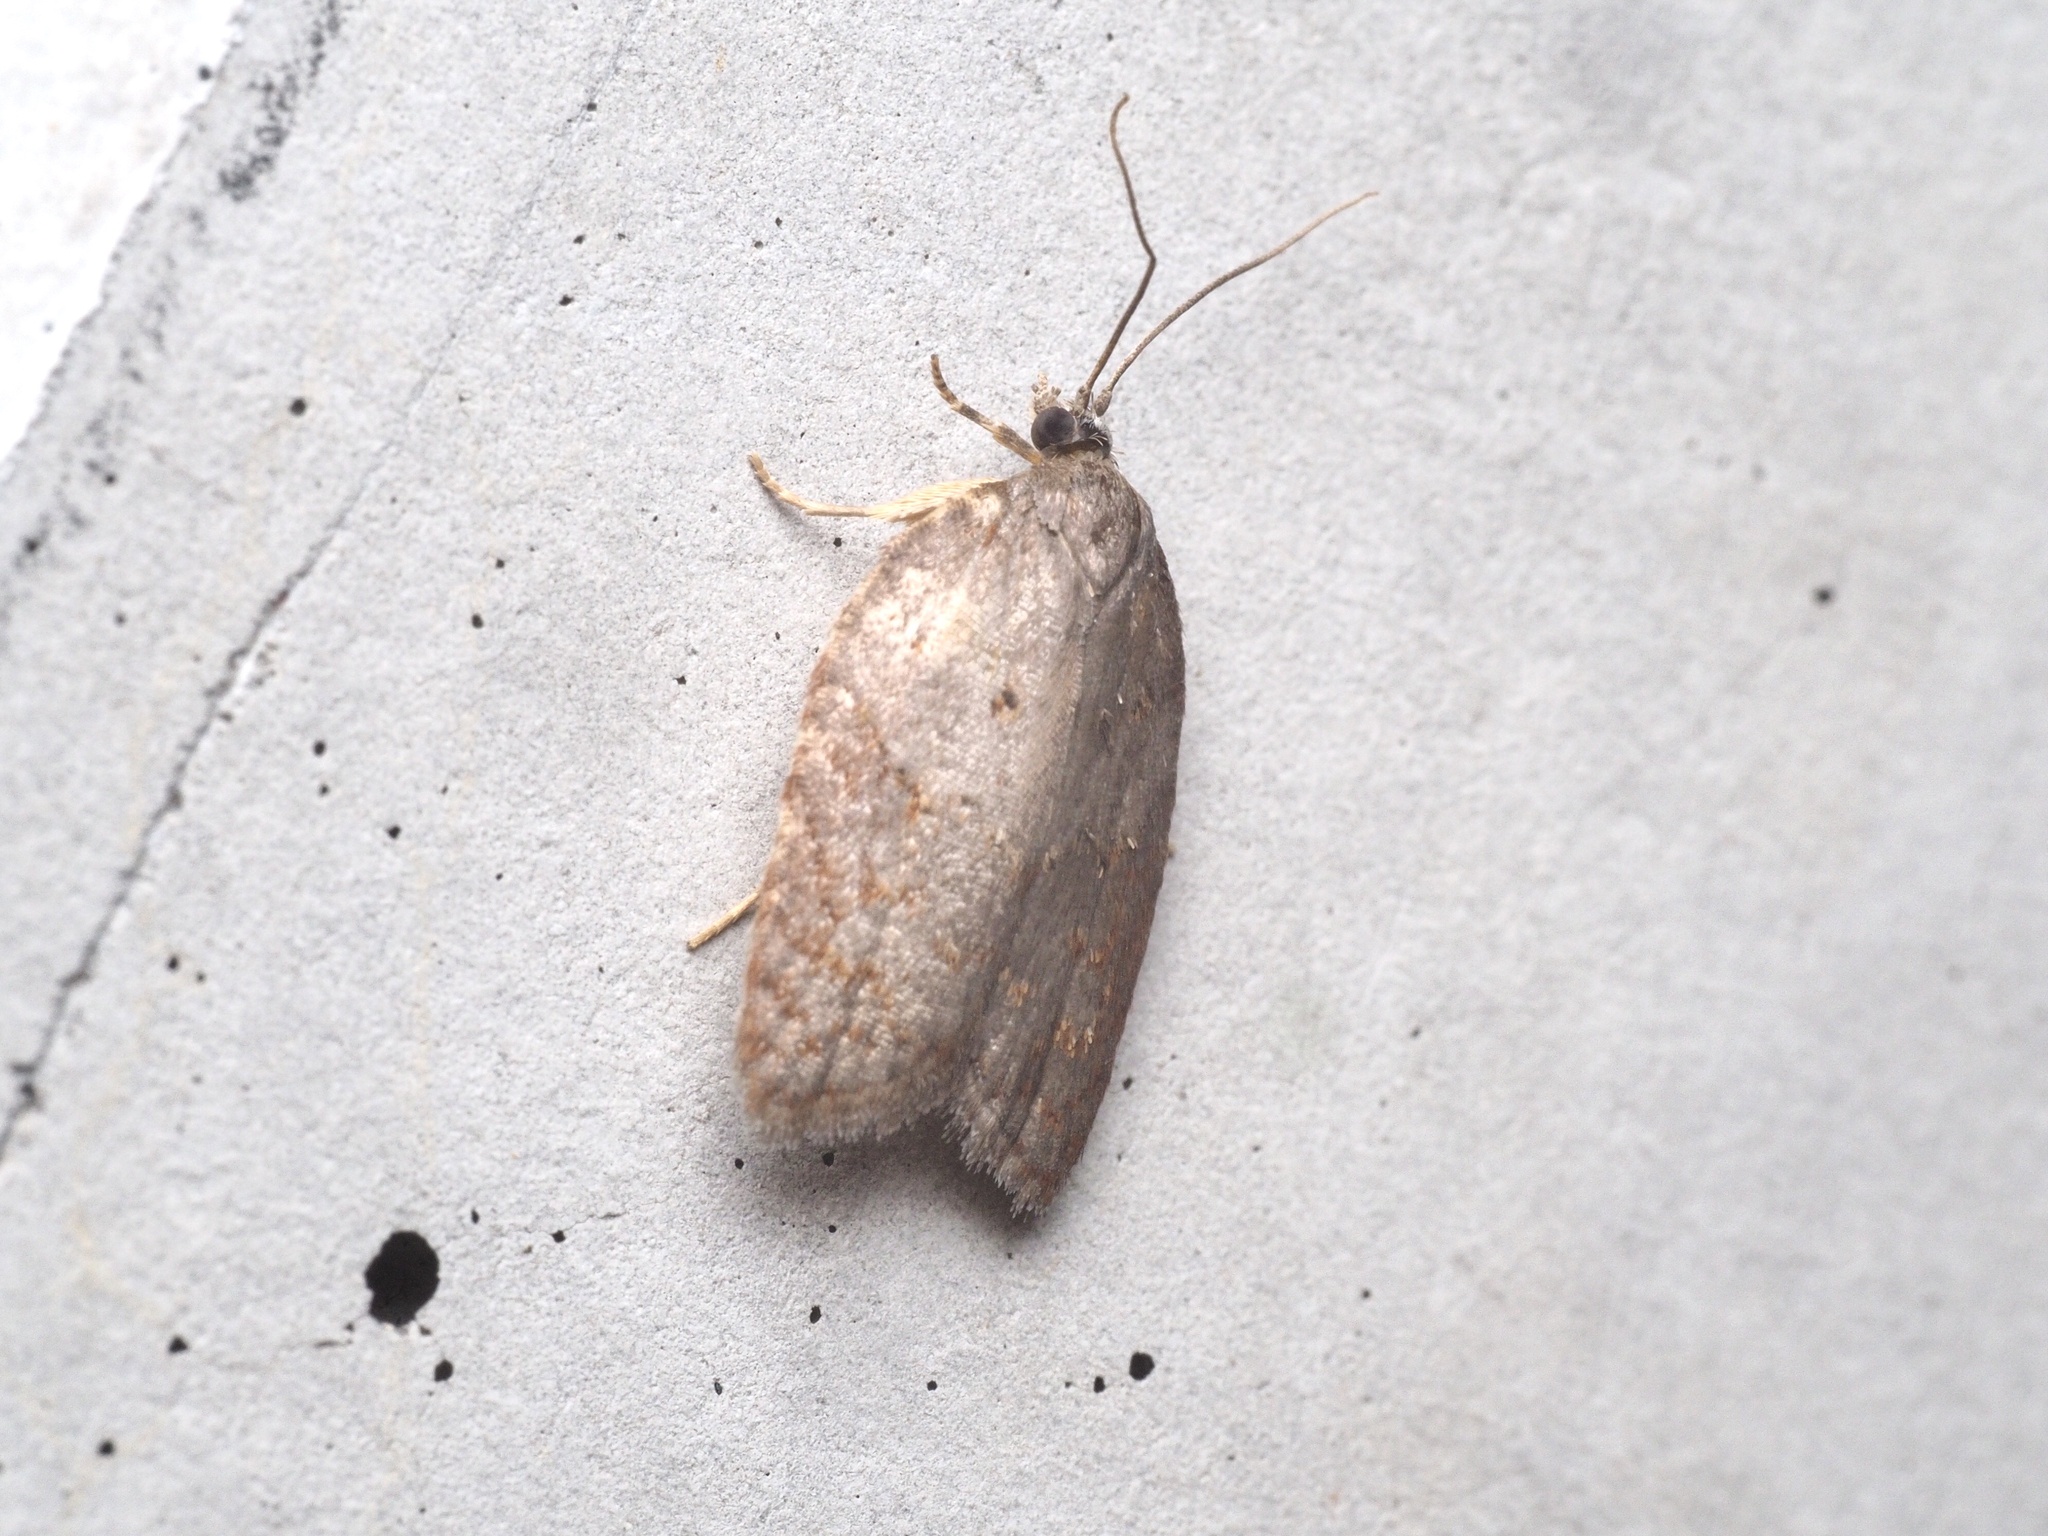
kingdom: Animalia
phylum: Arthropoda
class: Insecta
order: Lepidoptera
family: Tortricidae
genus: Acleris
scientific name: Acleris sparsana
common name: Ashy button
